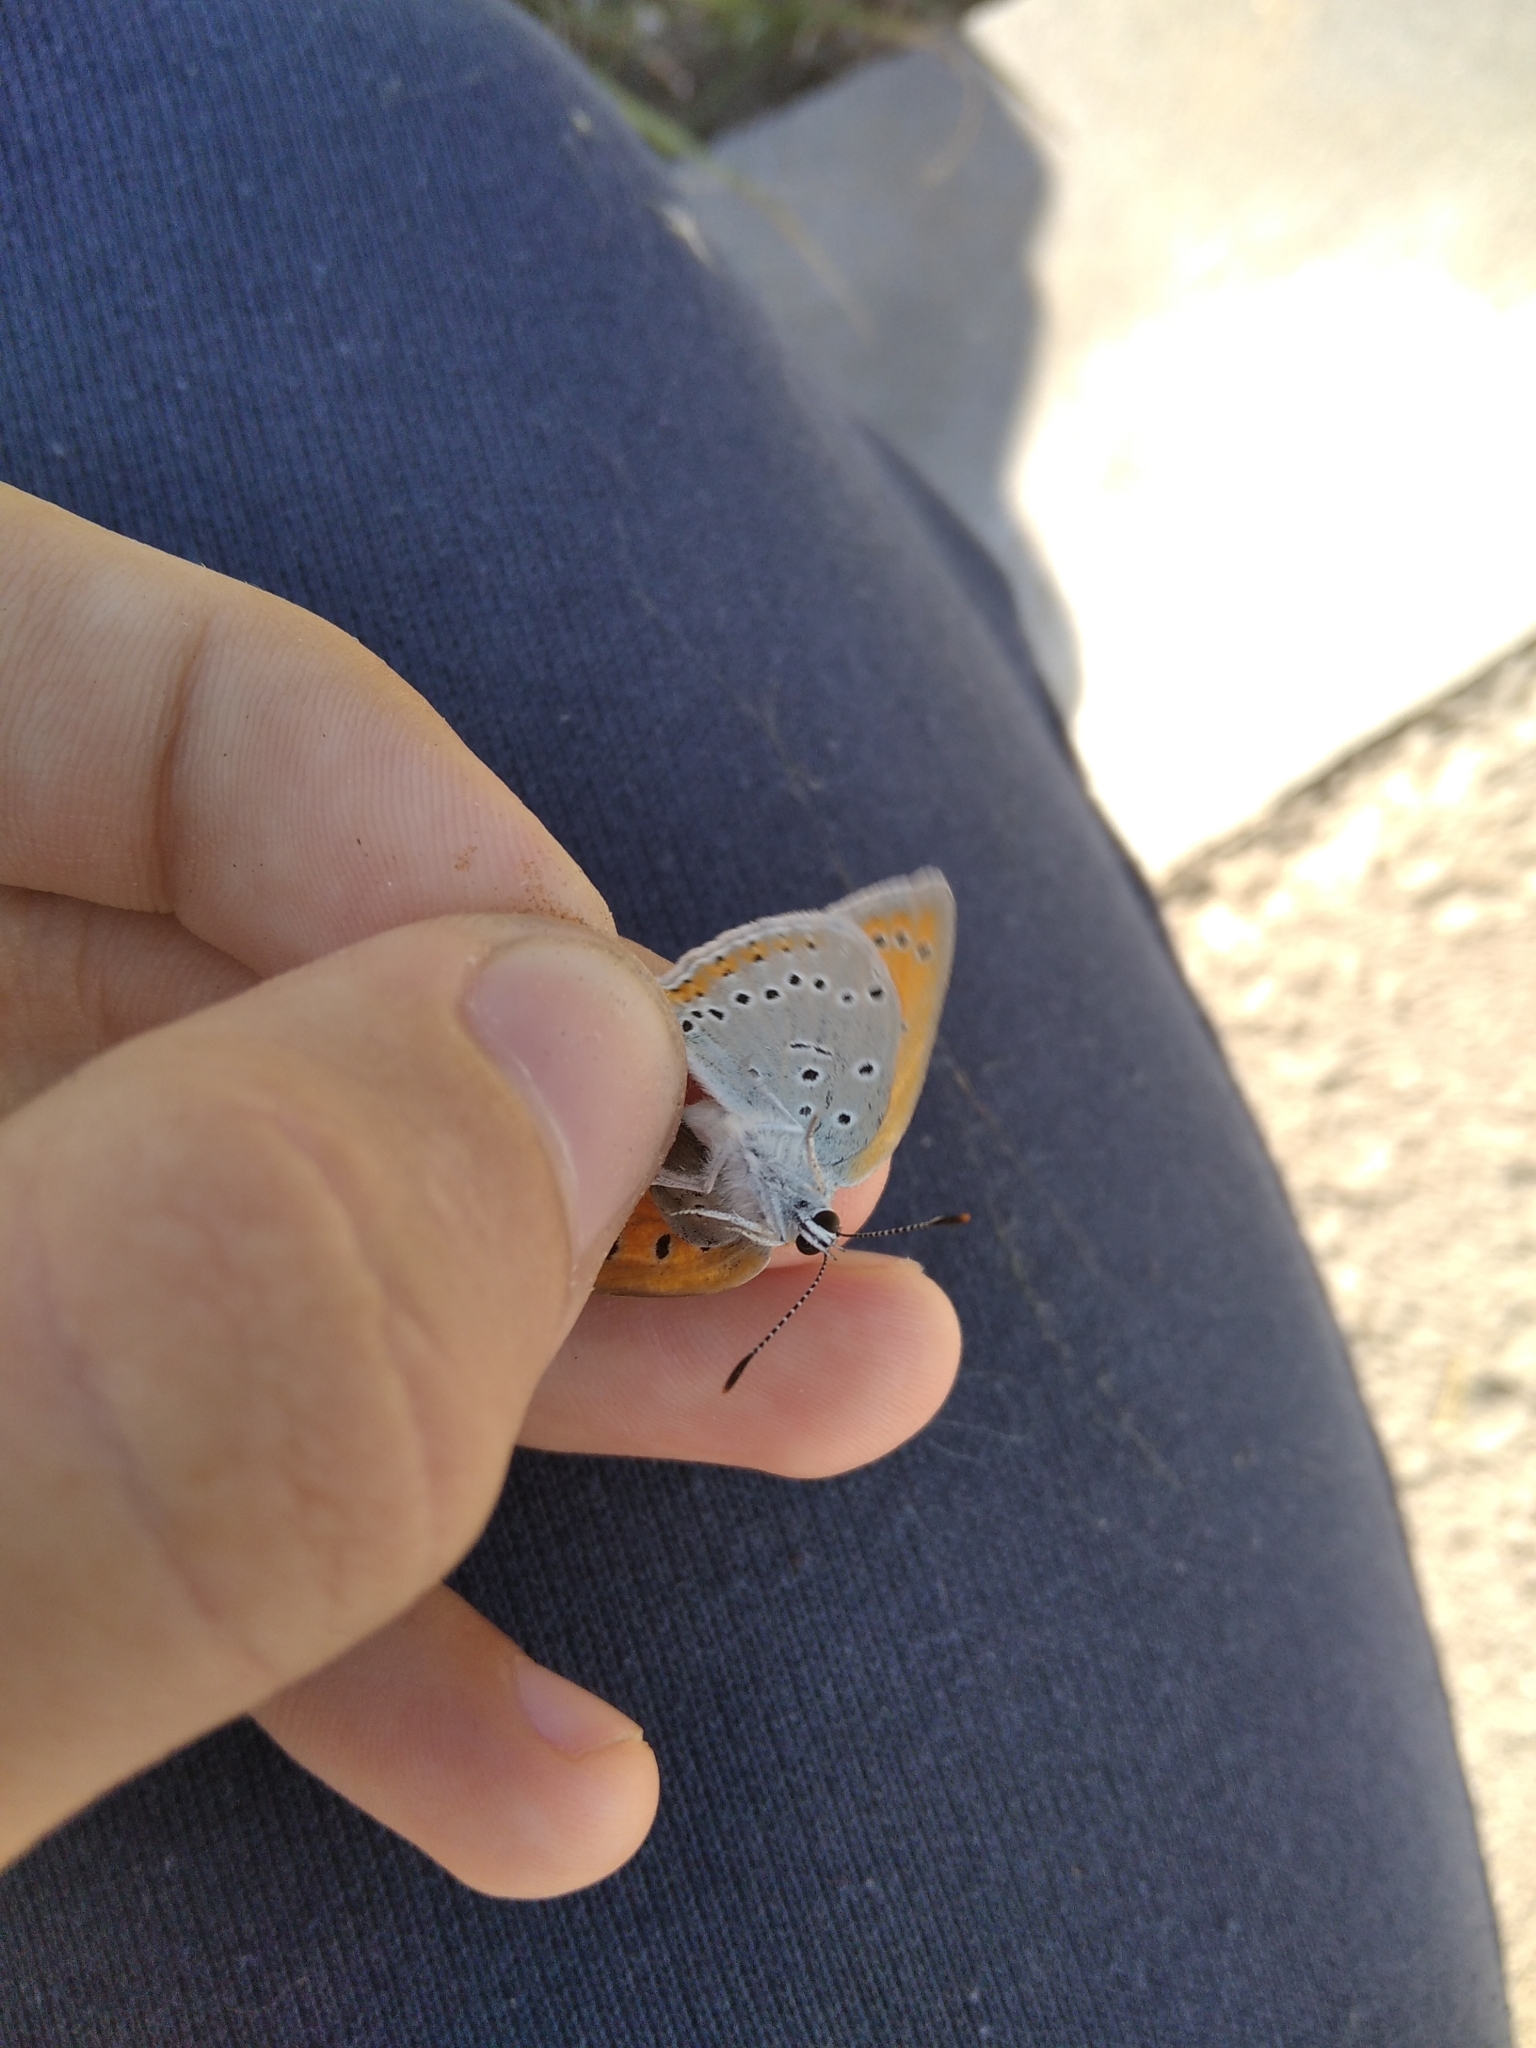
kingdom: Animalia
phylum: Arthropoda
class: Insecta
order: Lepidoptera
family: Lycaenidae
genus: Lycaena
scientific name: Lycaena dispar
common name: Large copper
